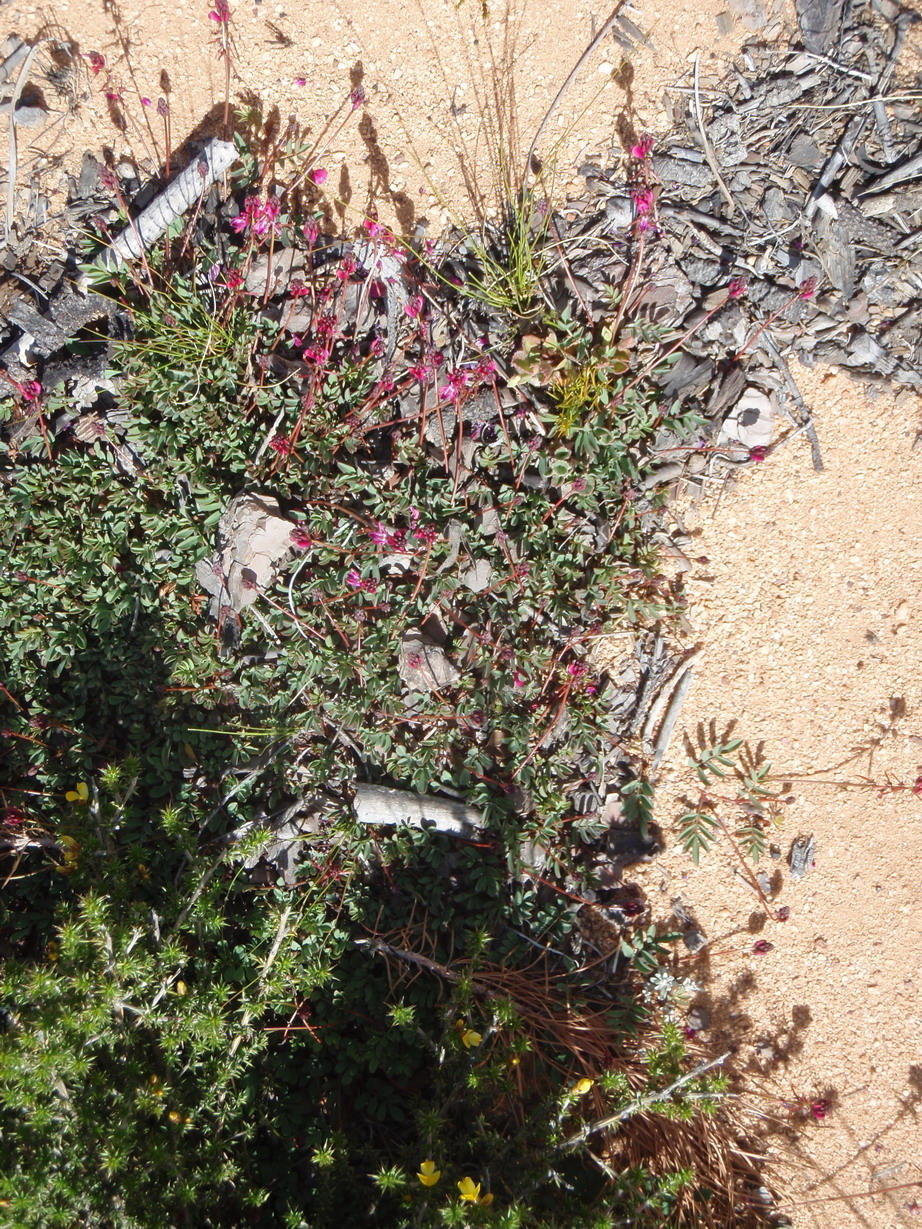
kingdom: Plantae
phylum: Tracheophyta
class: Magnoliopsida
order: Fabales
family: Fabaceae
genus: Indigofera
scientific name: Indigofera capillaris
